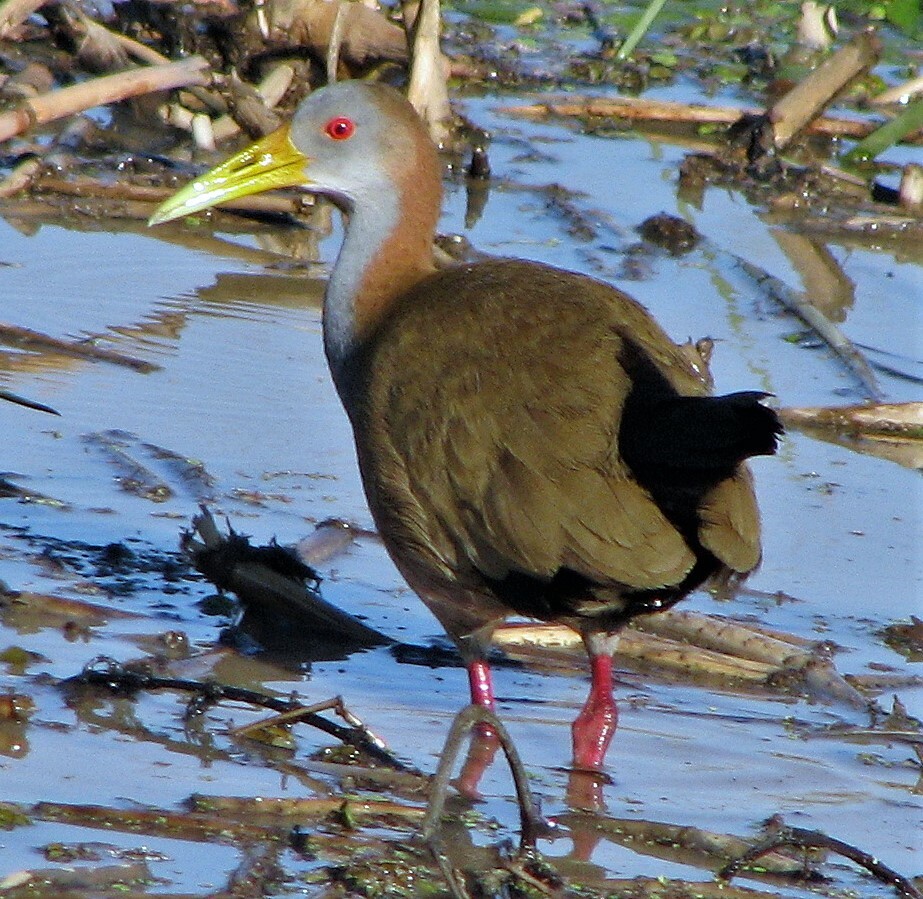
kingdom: Animalia
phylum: Chordata
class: Aves
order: Gruiformes
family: Rallidae
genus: Aramides
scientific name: Aramides ypecaha
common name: Giant wood rail
